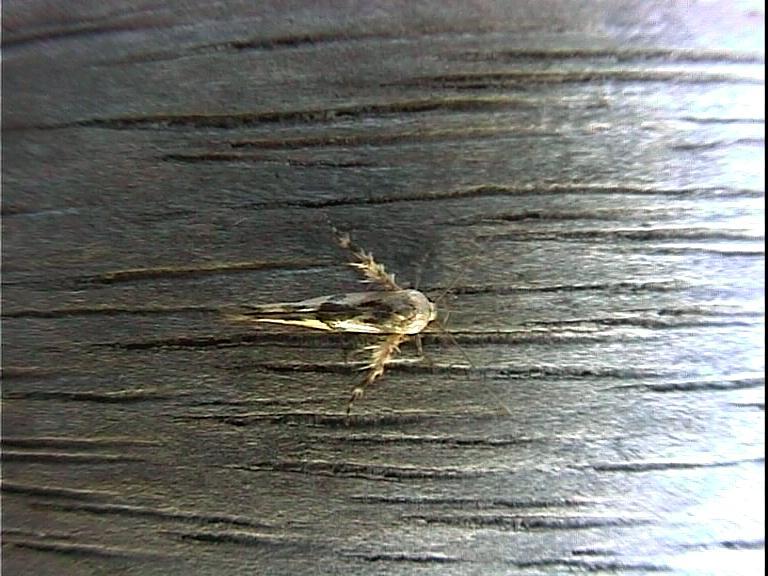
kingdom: Animalia
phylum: Arthropoda
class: Insecta
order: Lepidoptera
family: Stathmopodidae
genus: Stathmopoda
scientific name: Stathmopoda melanochra
